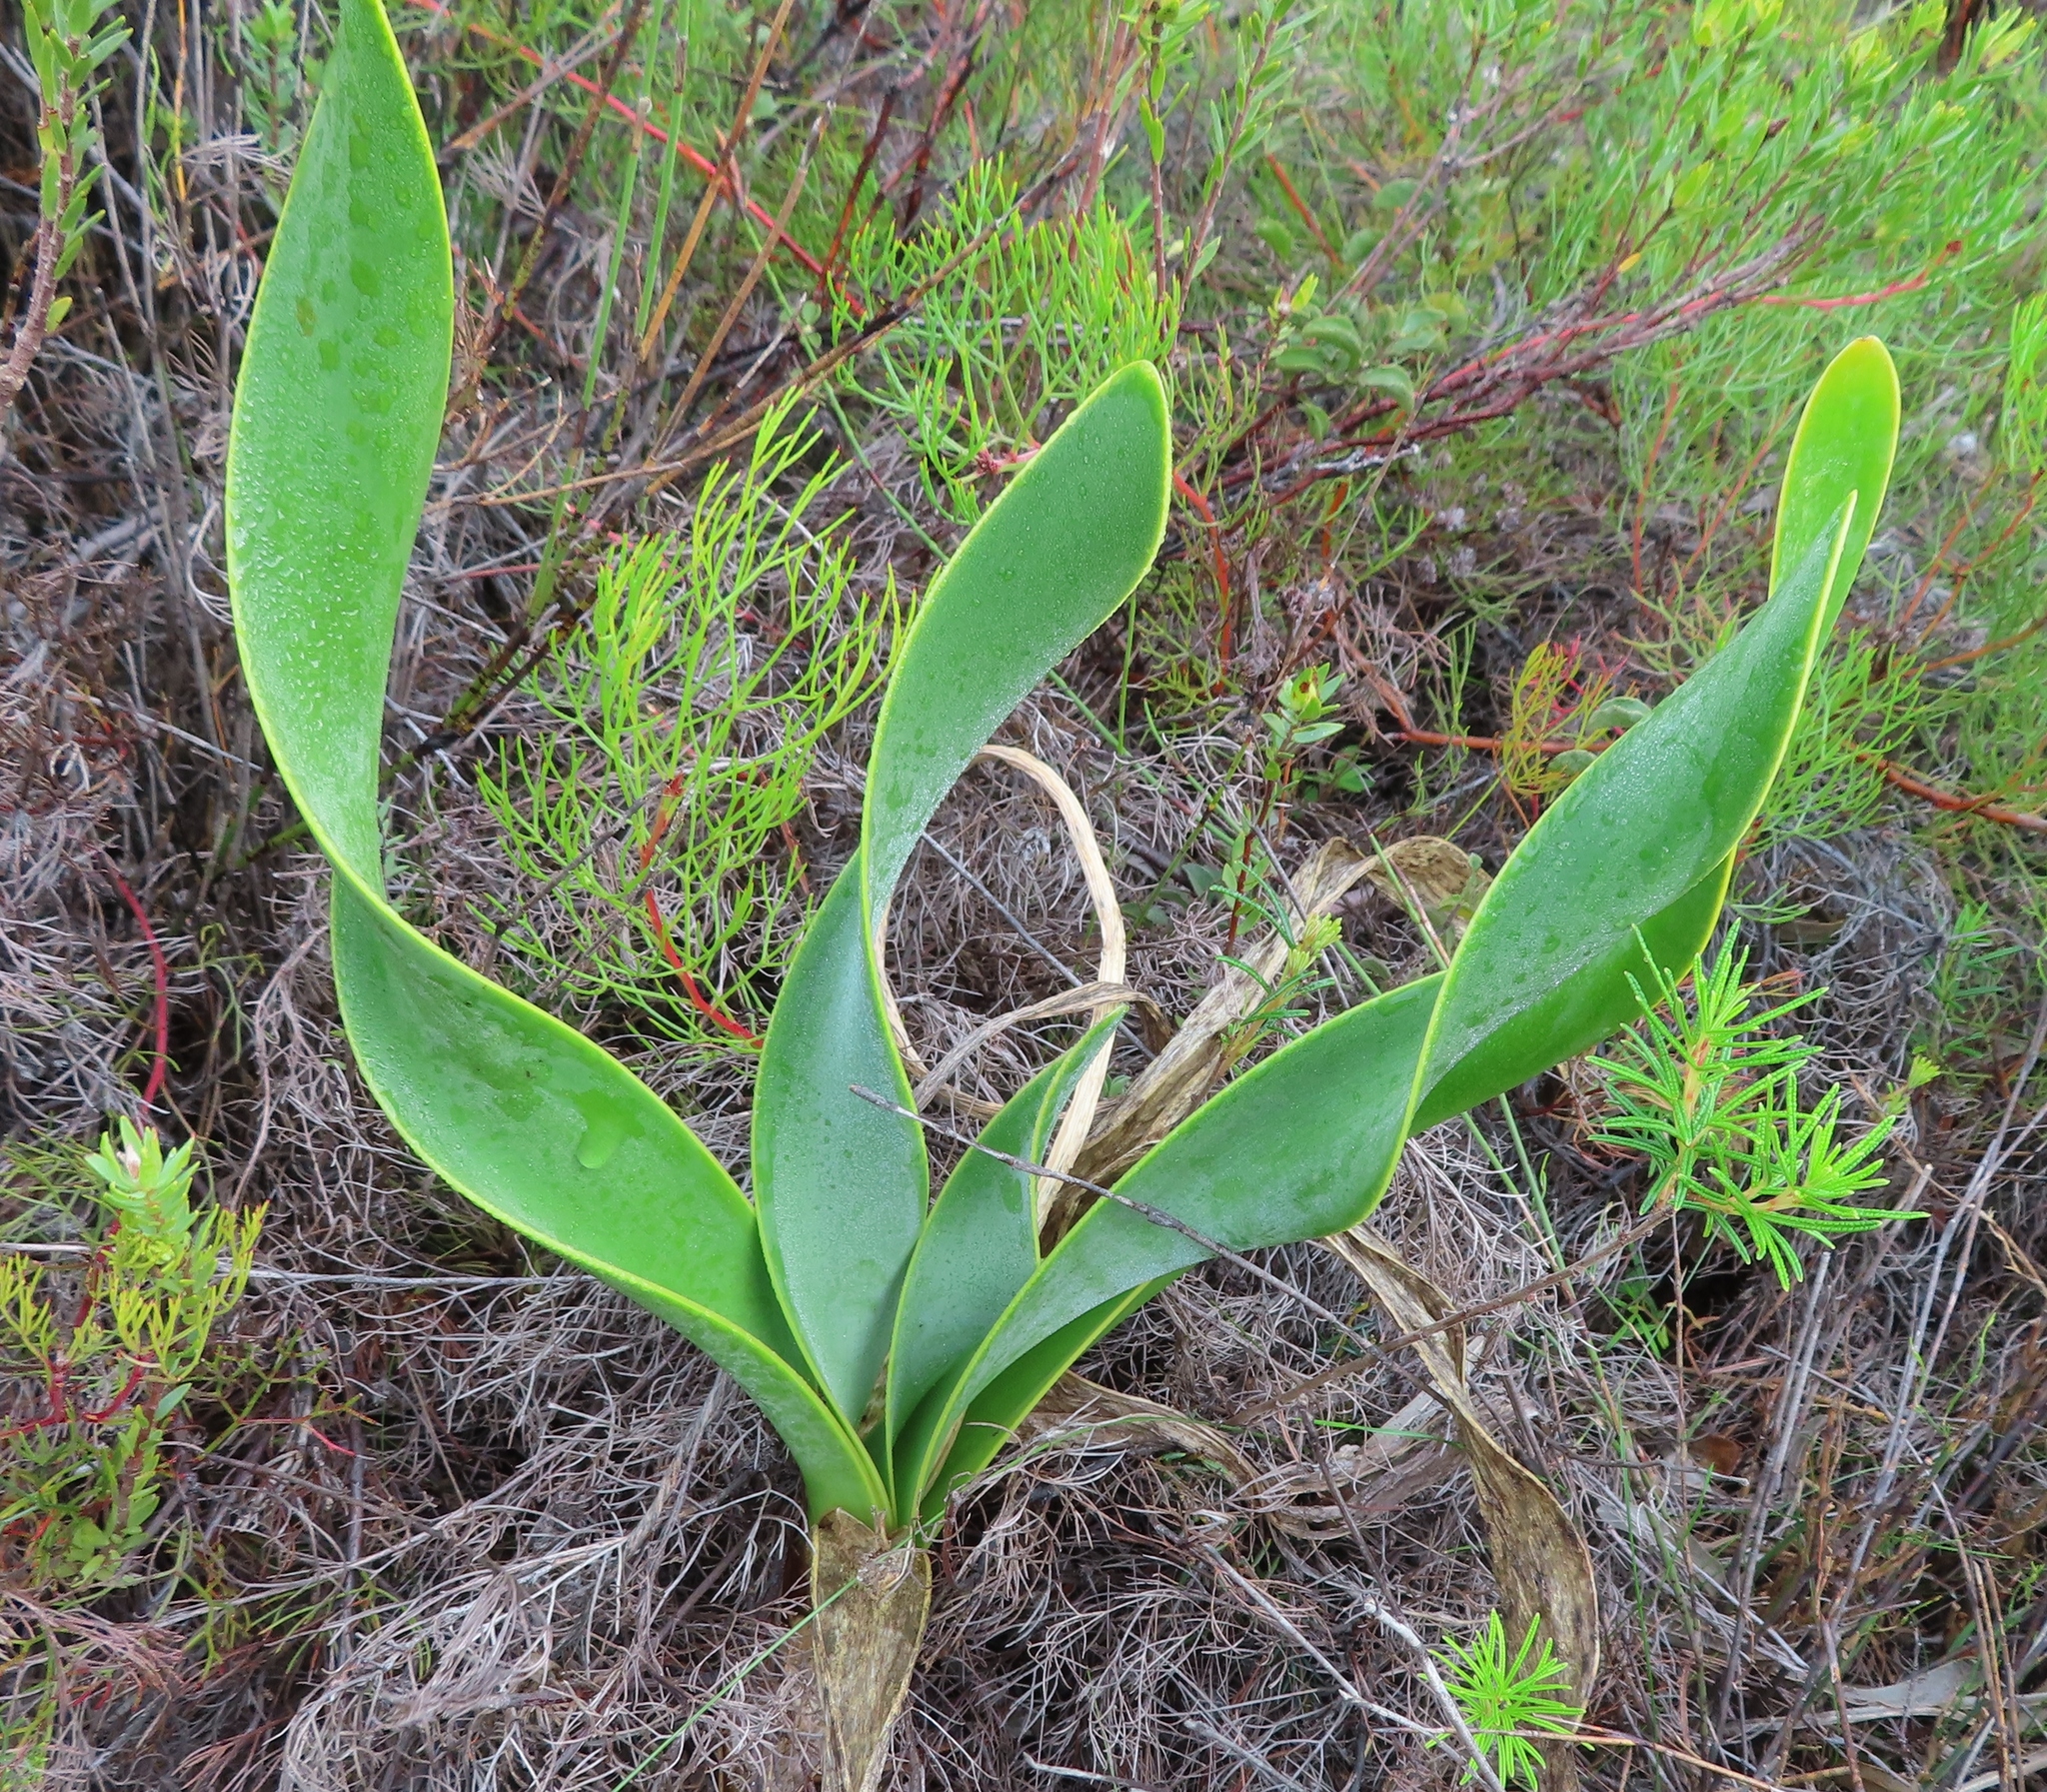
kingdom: Plantae
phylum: Tracheophyta
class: Liliopsida
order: Asparagales
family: Amaryllidaceae
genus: Cyrtanthus
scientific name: Cyrtanthus carneus
